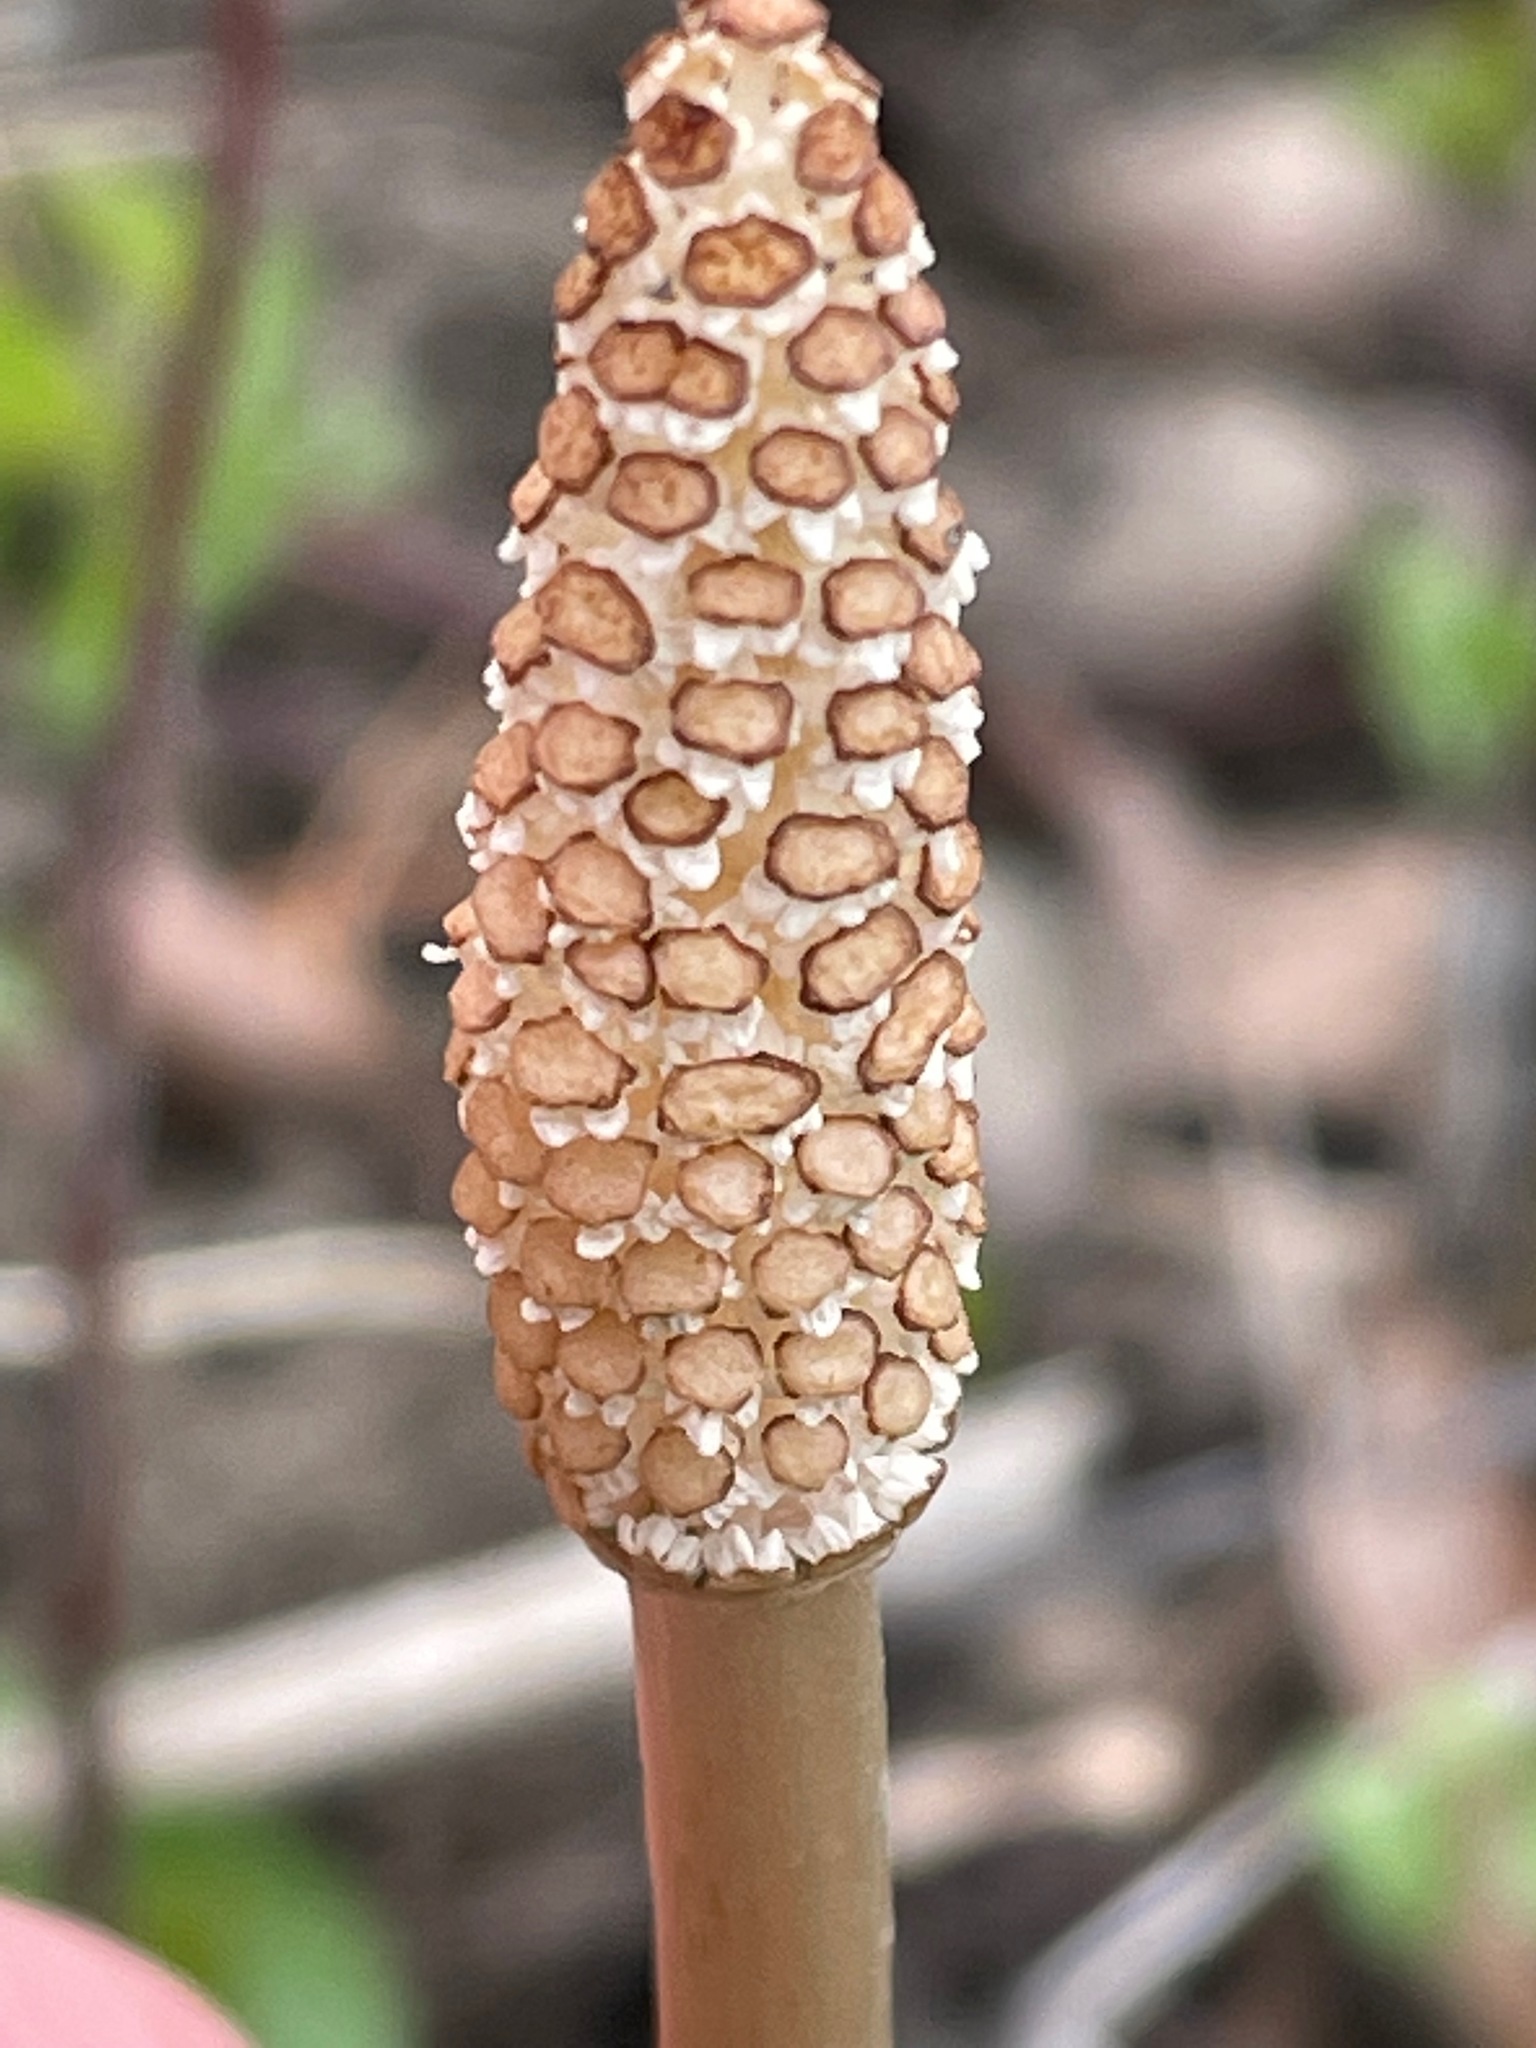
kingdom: Plantae
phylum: Tracheophyta
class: Polypodiopsida
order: Equisetales
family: Equisetaceae
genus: Equisetum
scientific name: Equisetum arvense
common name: Field horsetail
